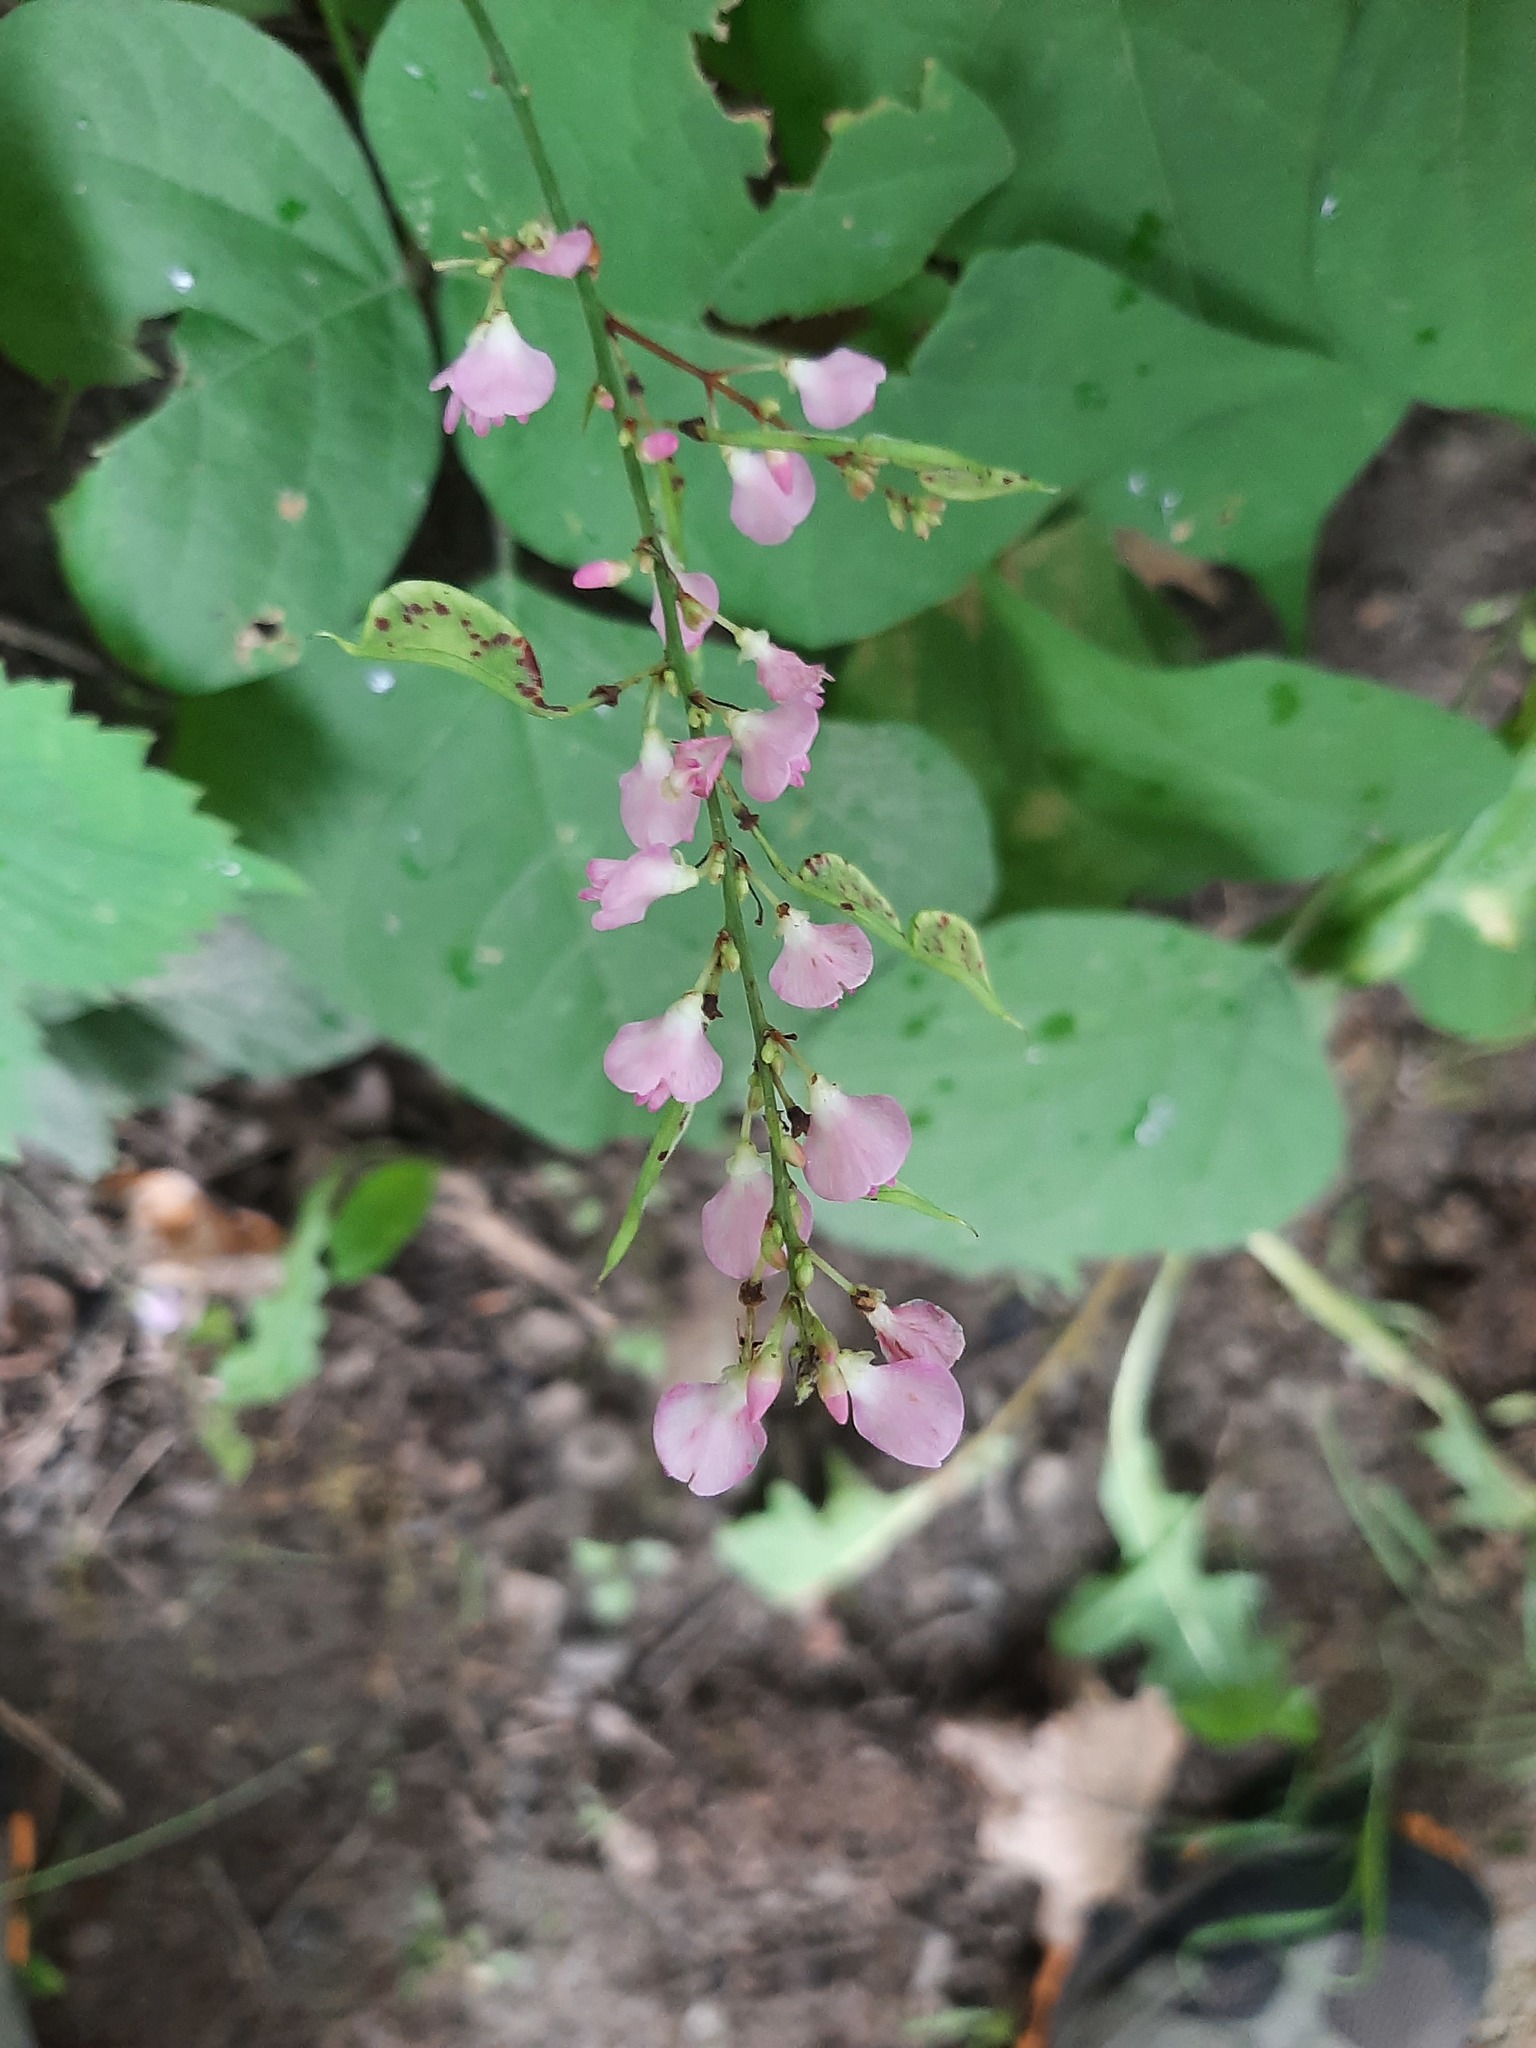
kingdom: Plantae
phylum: Tracheophyta
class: Magnoliopsida
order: Fabales
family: Fabaceae
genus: Hylodesmum
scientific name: Hylodesmum glutinosum
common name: Clustered-leaved tick-trefoil
